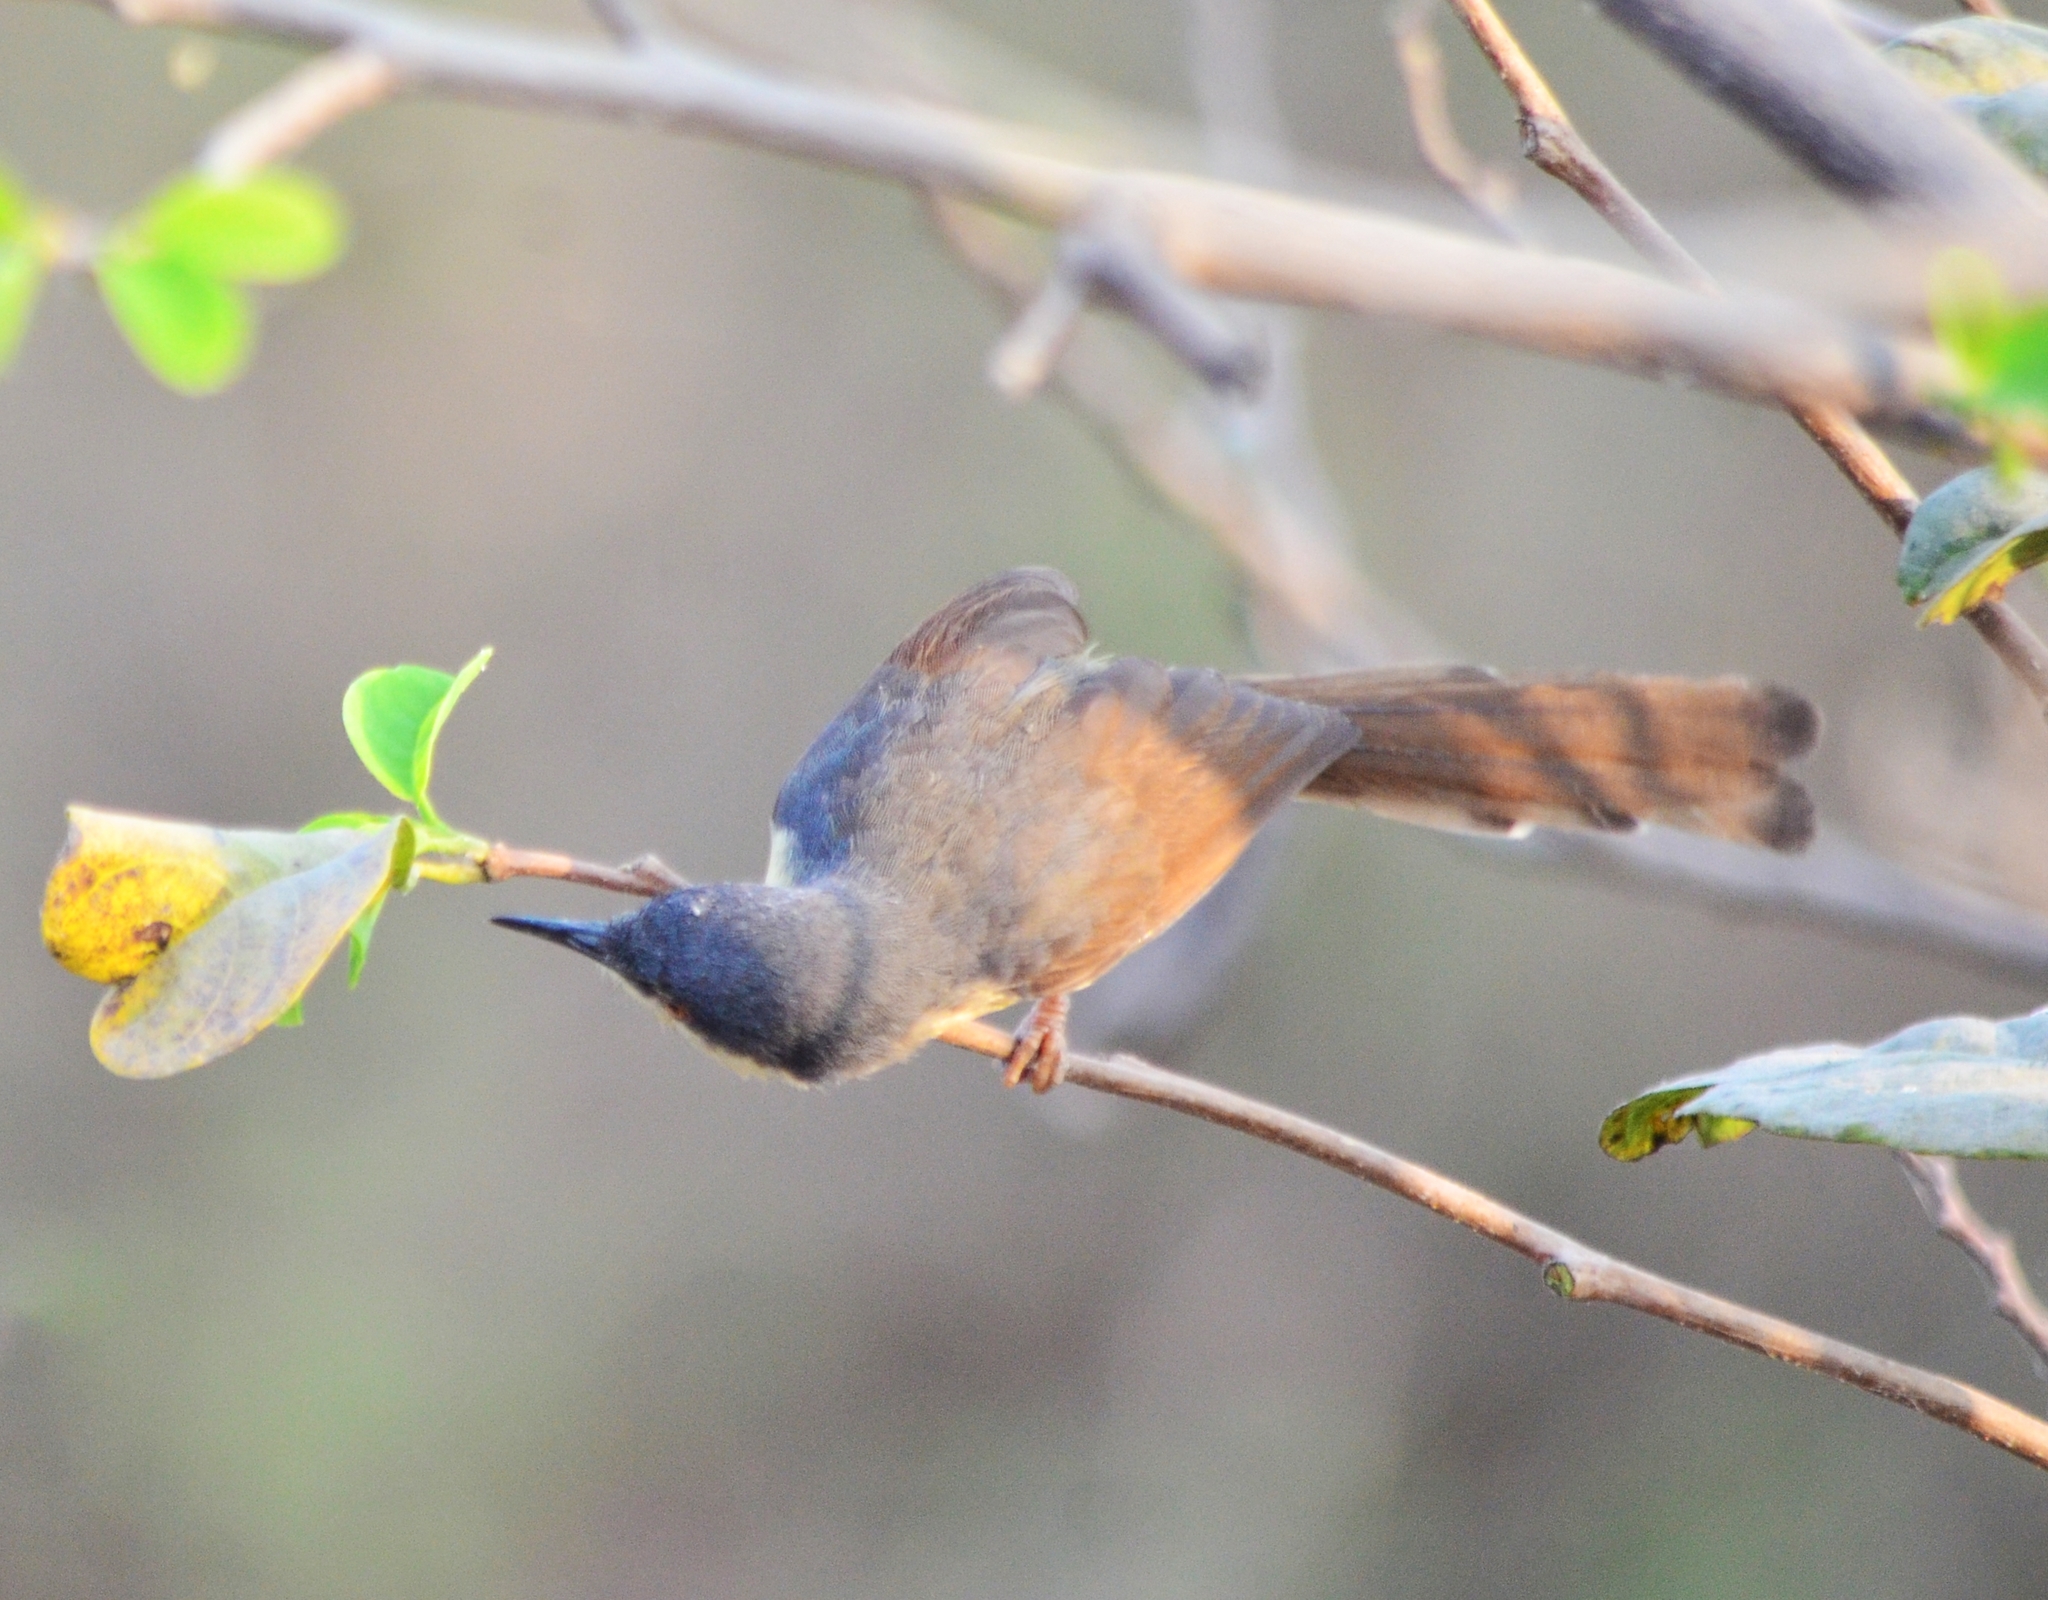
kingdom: Animalia
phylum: Chordata
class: Aves
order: Passeriformes
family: Cisticolidae
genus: Prinia
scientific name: Prinia socialis
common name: Ashy prinia
